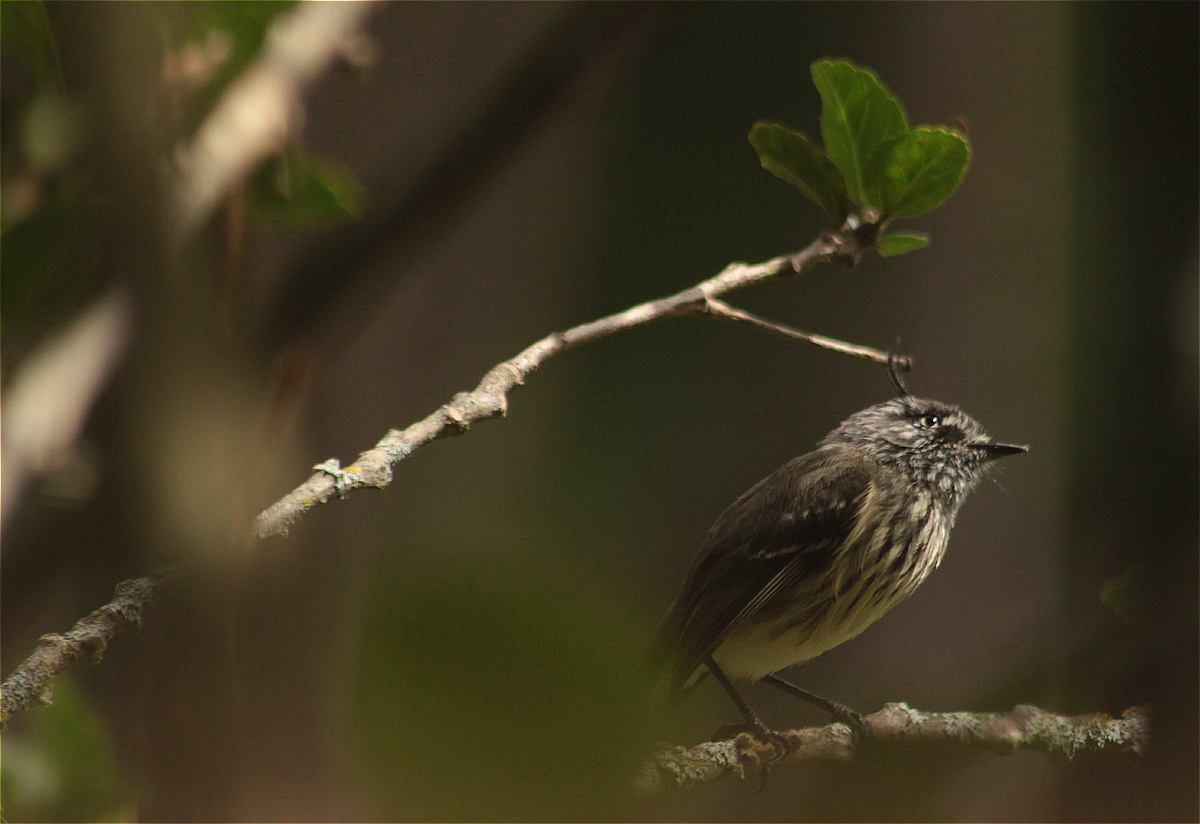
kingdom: Animalia
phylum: Chordata
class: Aves
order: Passeriformes
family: Tyrannidae
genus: Anairetes
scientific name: Anairetes parulus
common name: Tufted tit-tyrant
